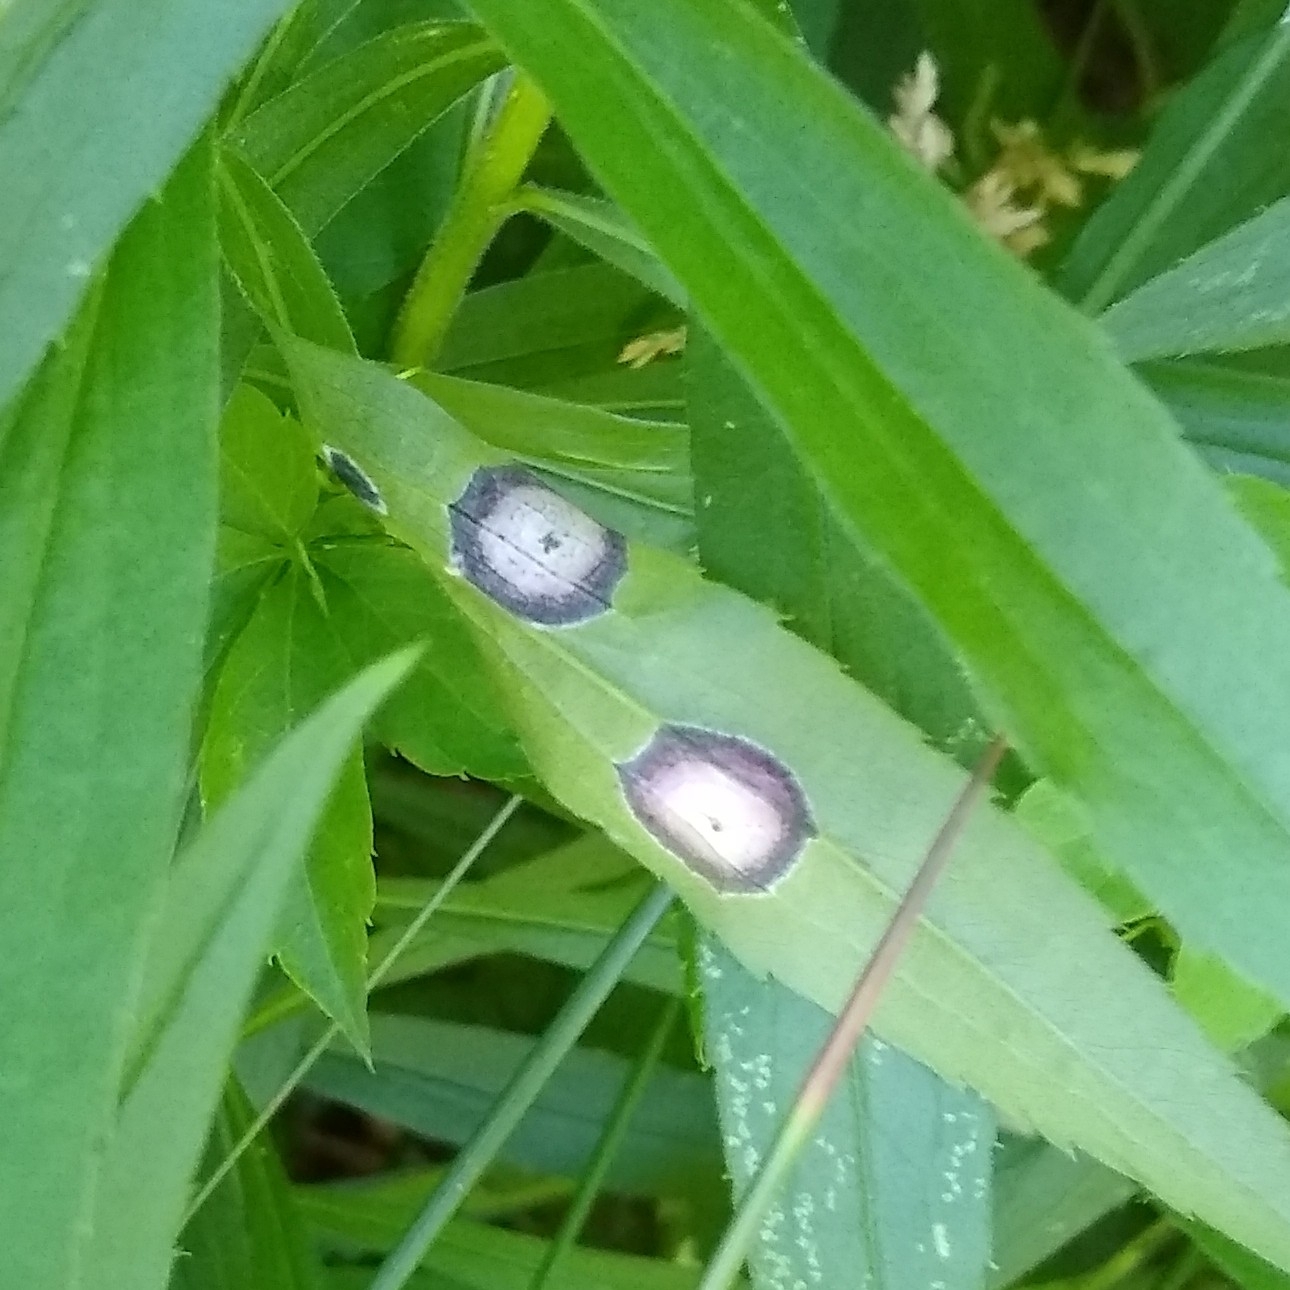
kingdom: Animalia
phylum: Arthropoda
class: Insecta
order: Diptera
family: Cecidomyiidae
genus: Asteromyia
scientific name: Asteromyia carbonifera
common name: Carbonifera goldenrod gall midge
